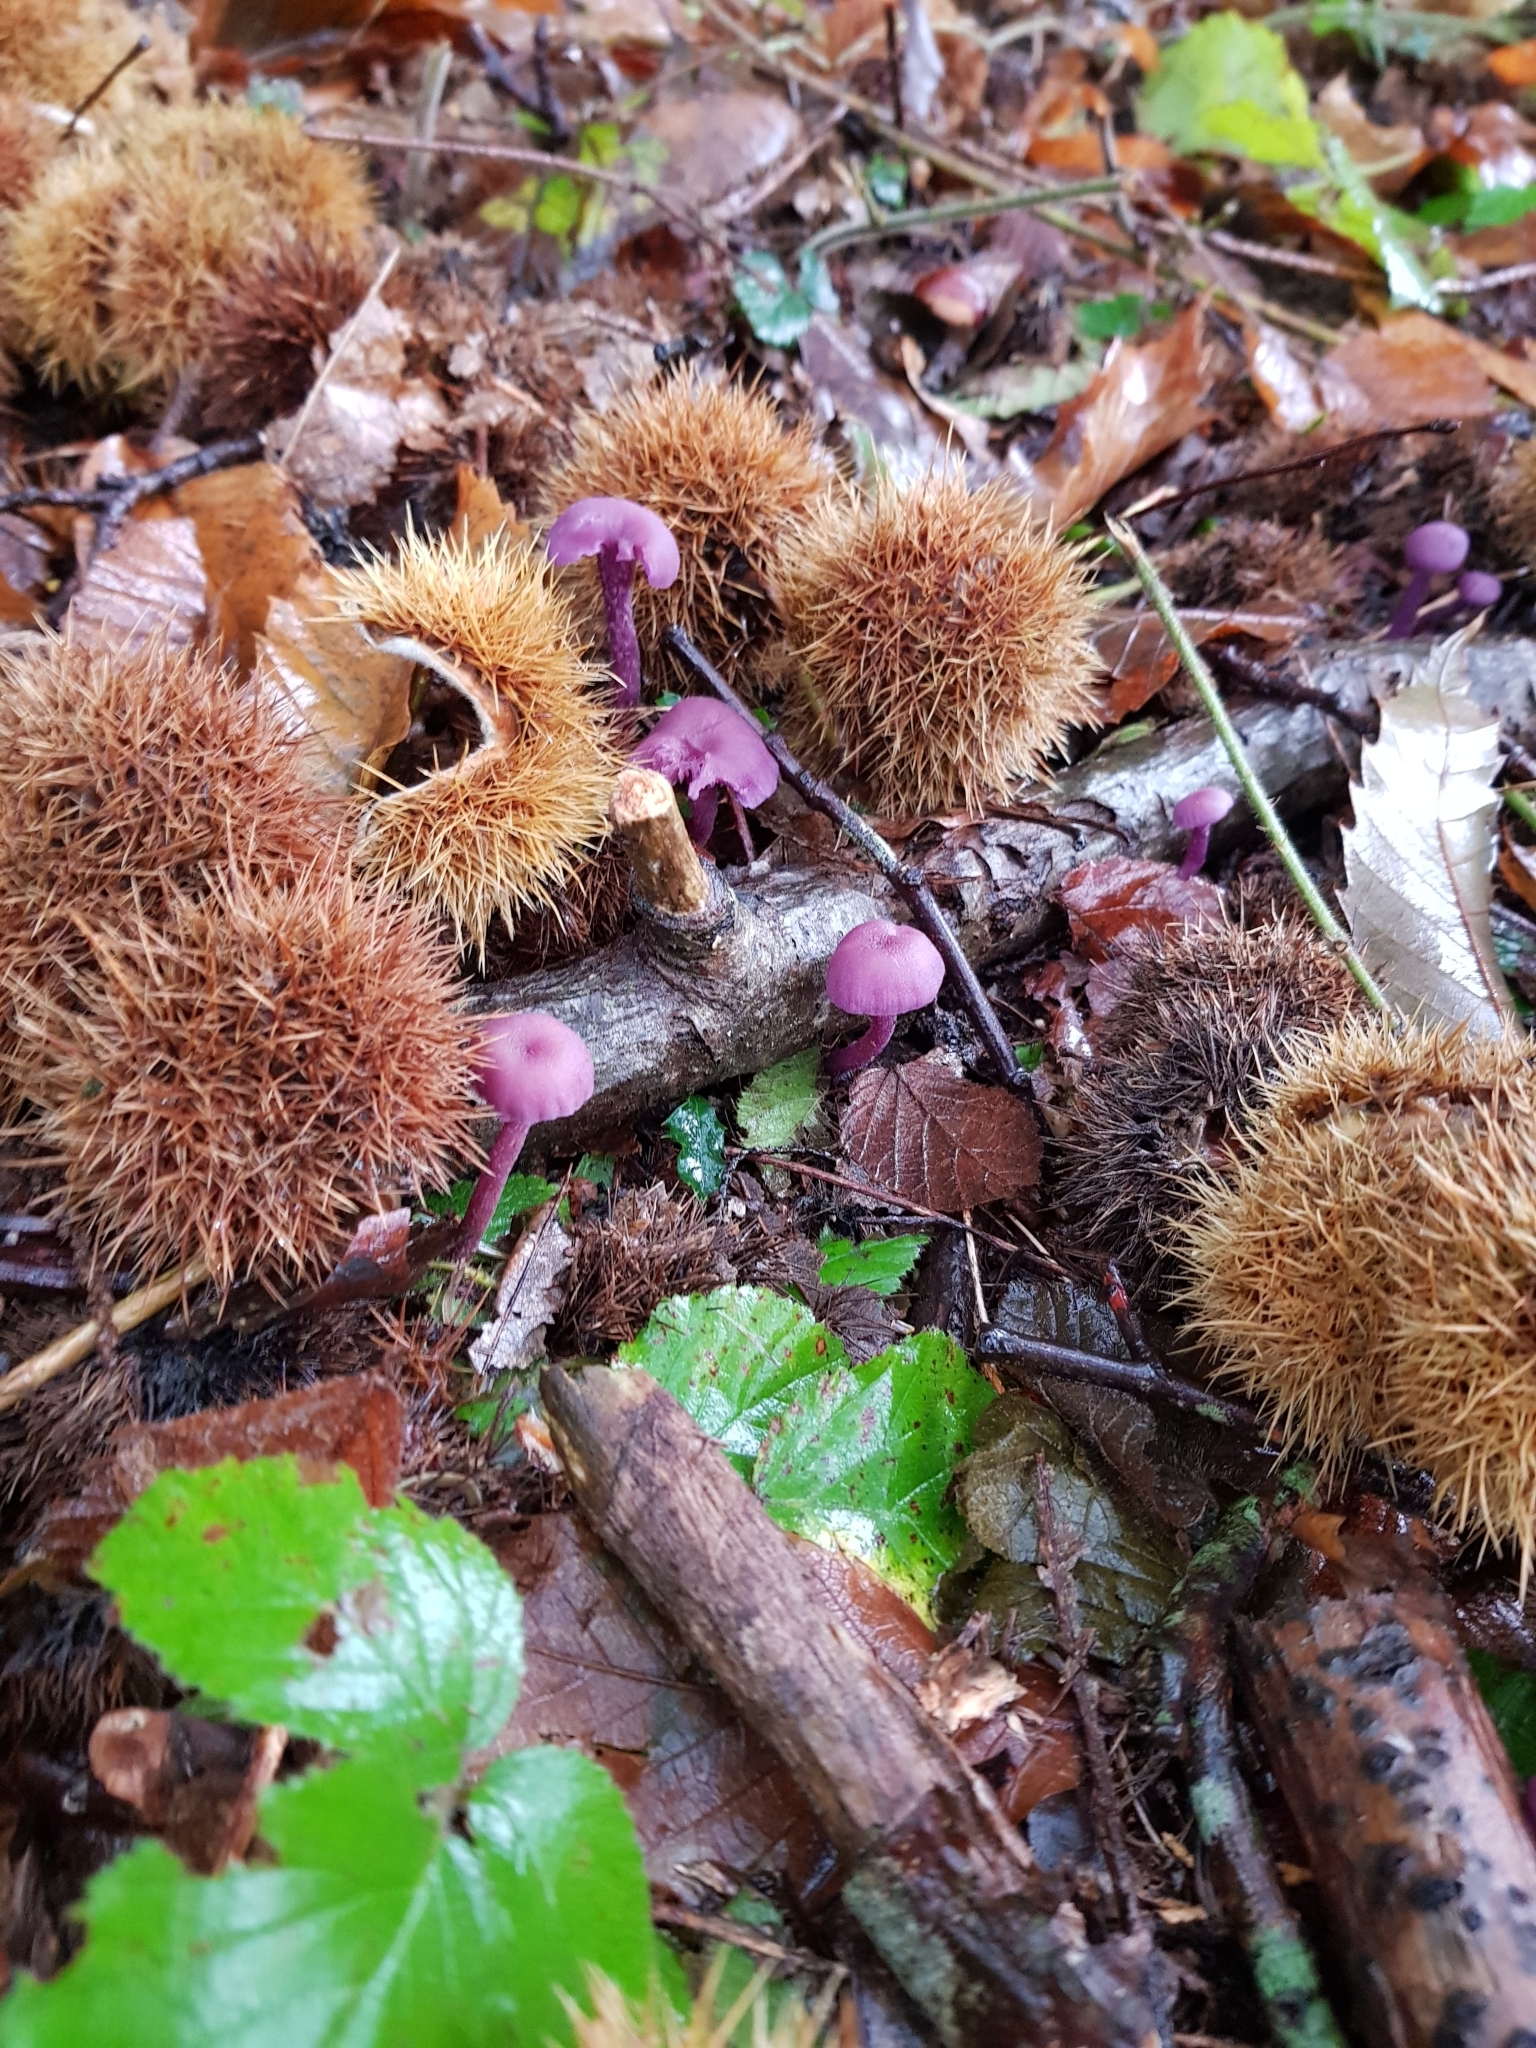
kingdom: Fungi
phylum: Basidiomycota
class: Agaricomycetes
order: Agaricales
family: Hydnangiaceae
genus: Laccaria
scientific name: Laccaria amethystina
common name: Amethyst deceiver
